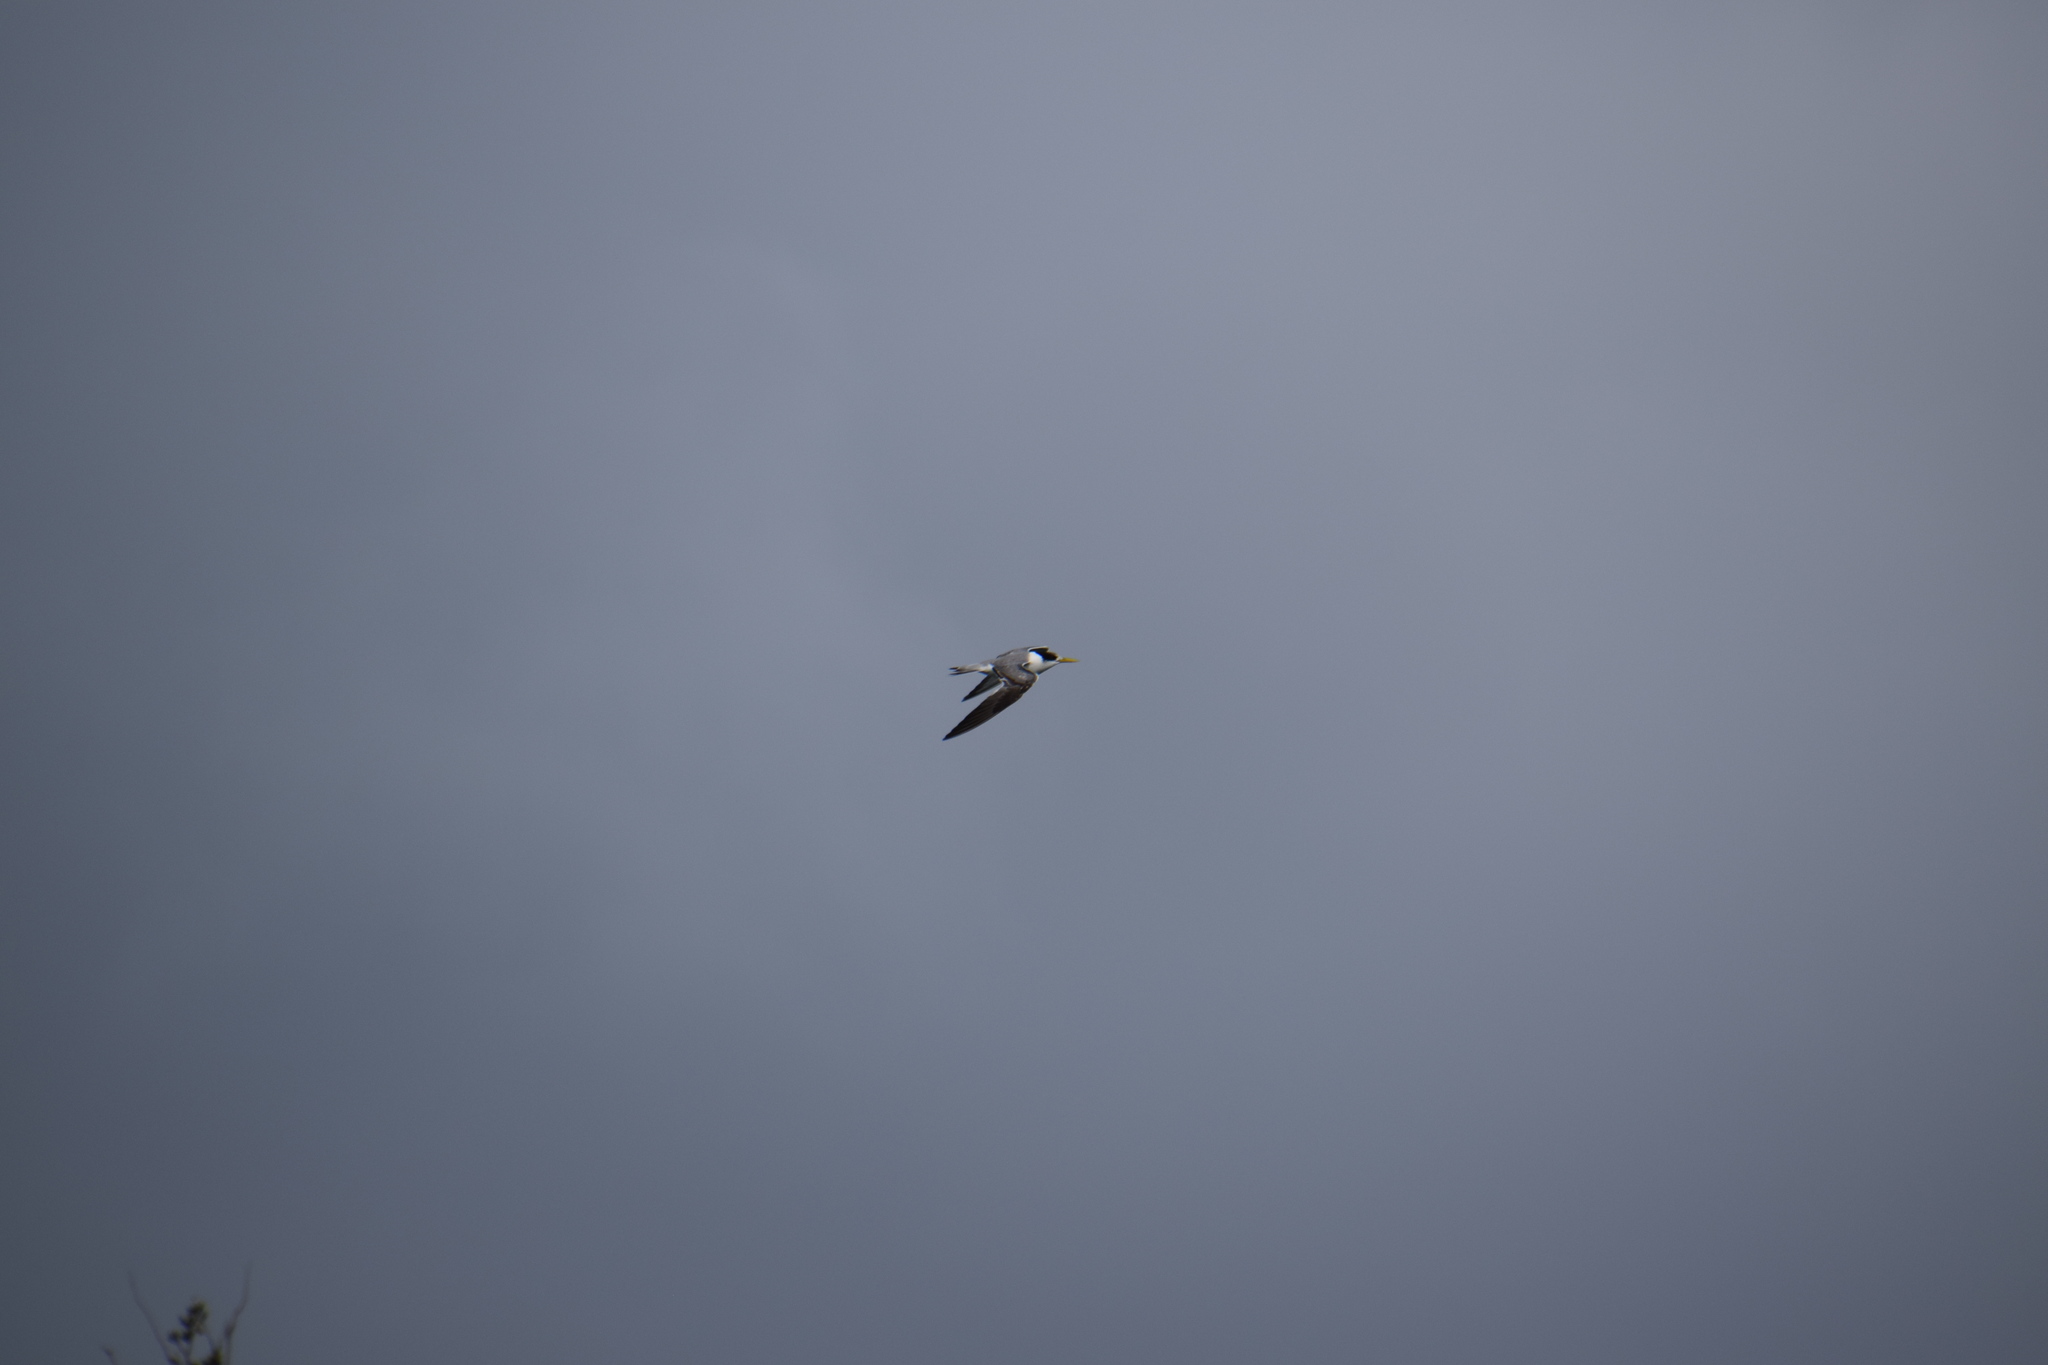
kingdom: Animalia
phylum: Chordata
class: Aves
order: Charadriiformes
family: Laridae
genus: Thalasseus
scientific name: Thalasseus bergii
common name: Greater crested tern
